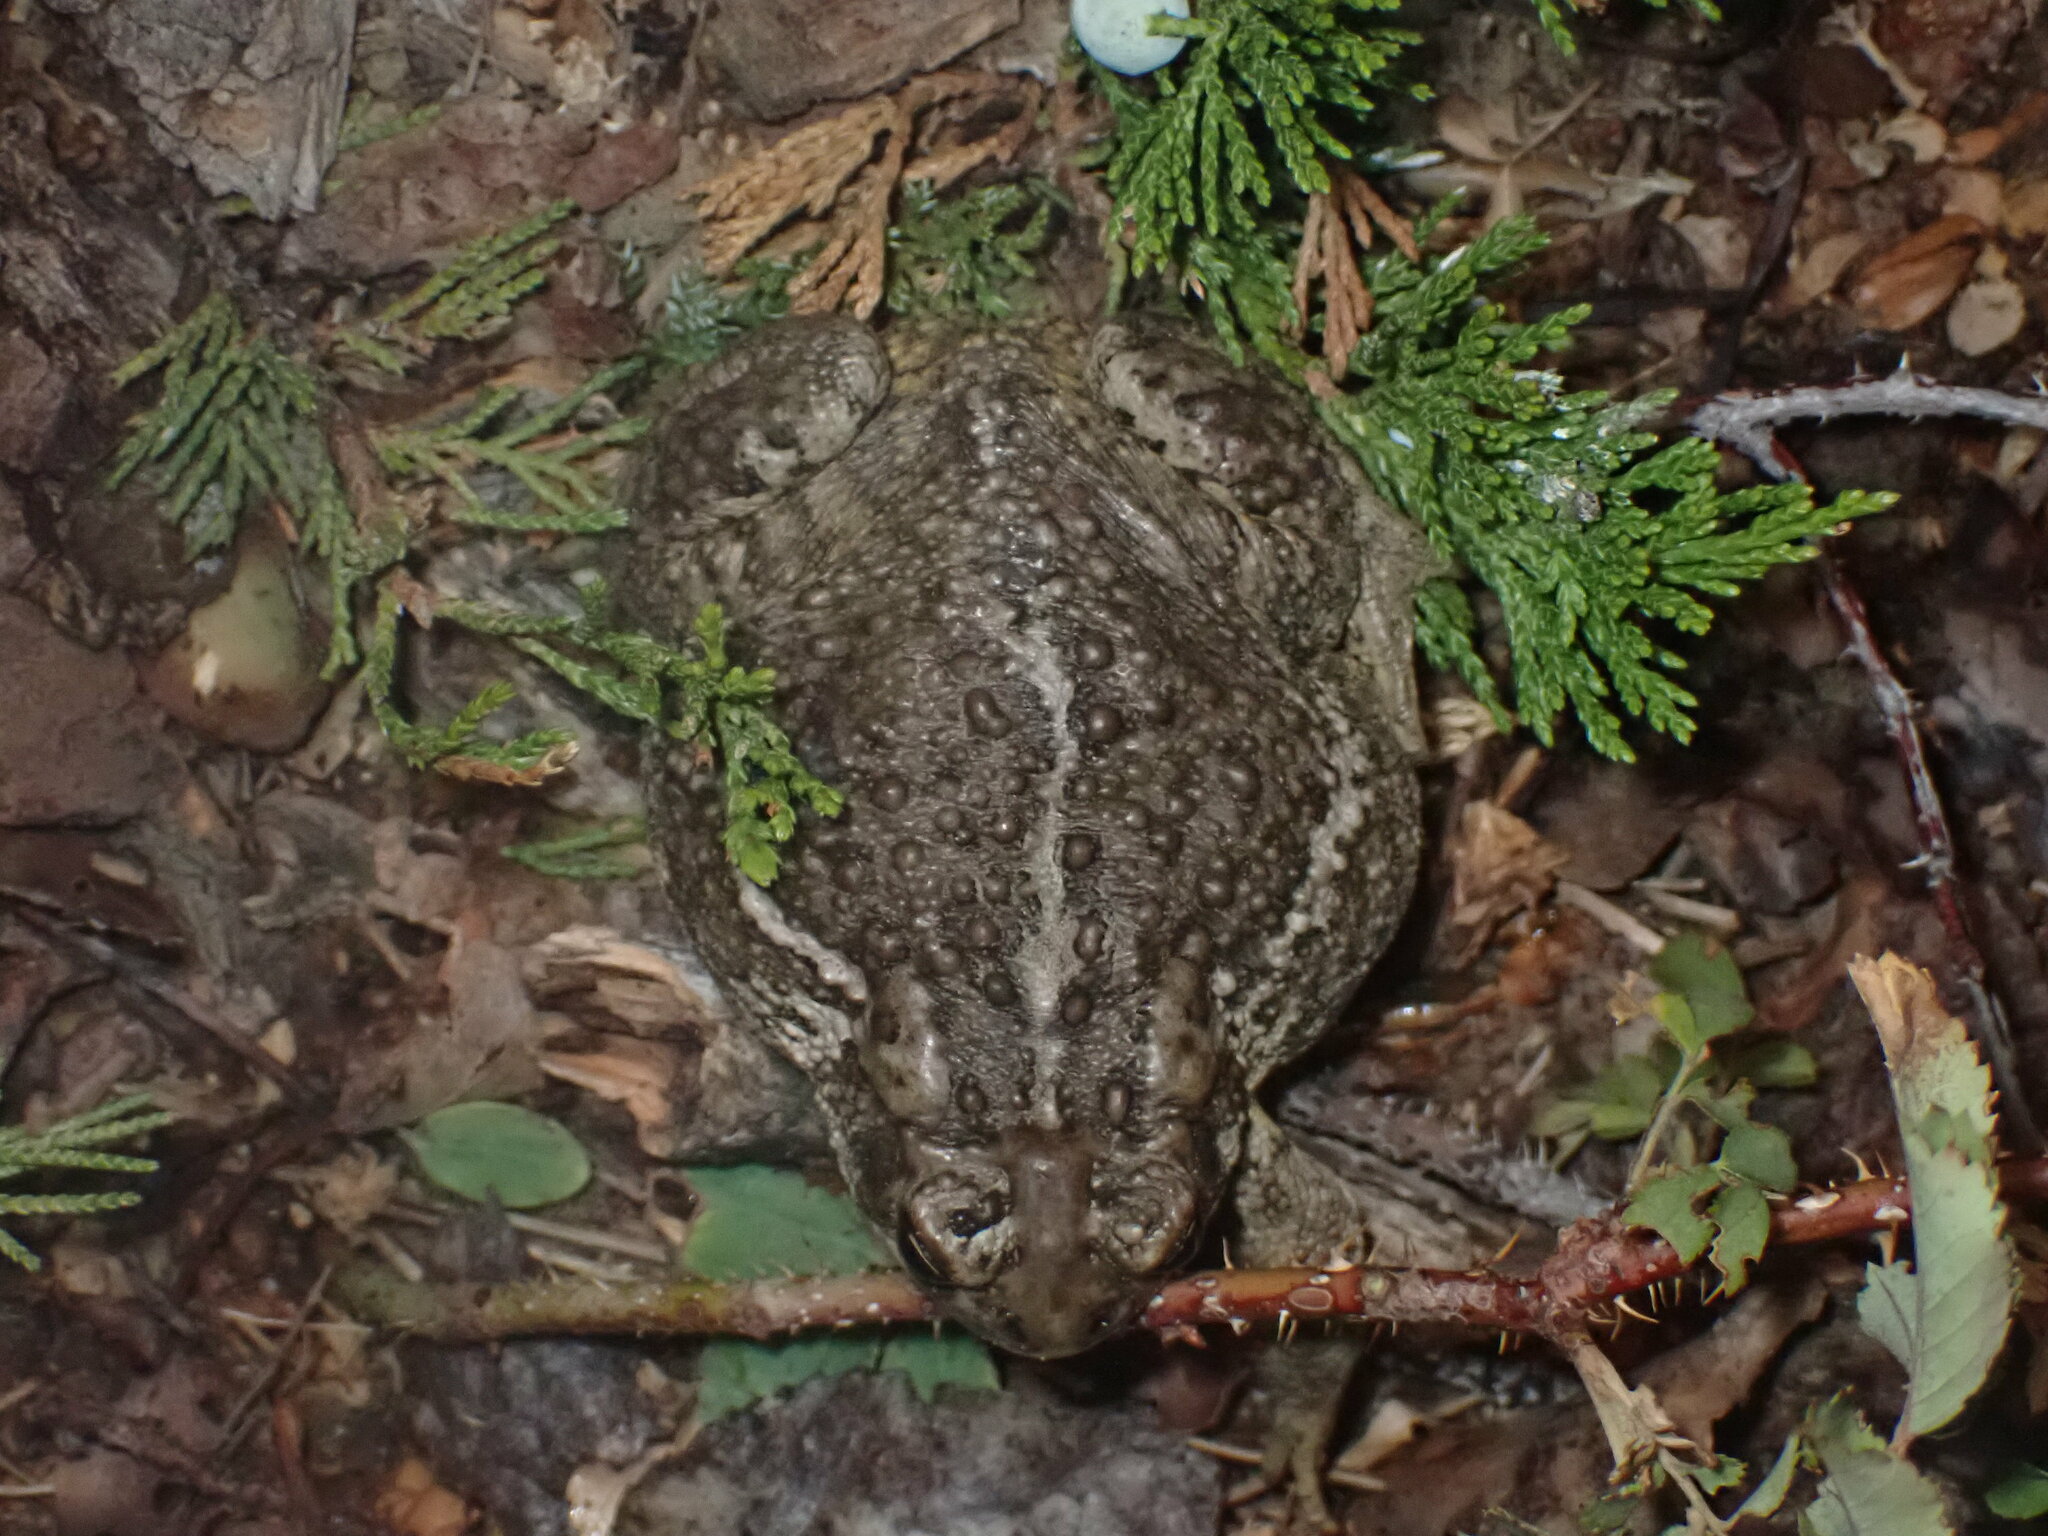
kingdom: Animalia
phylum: Chordata
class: Amphibia
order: Anura
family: Bufonidae
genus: Anaxyrus
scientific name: Anaxyrus hemiophrys
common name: Canadian toad
